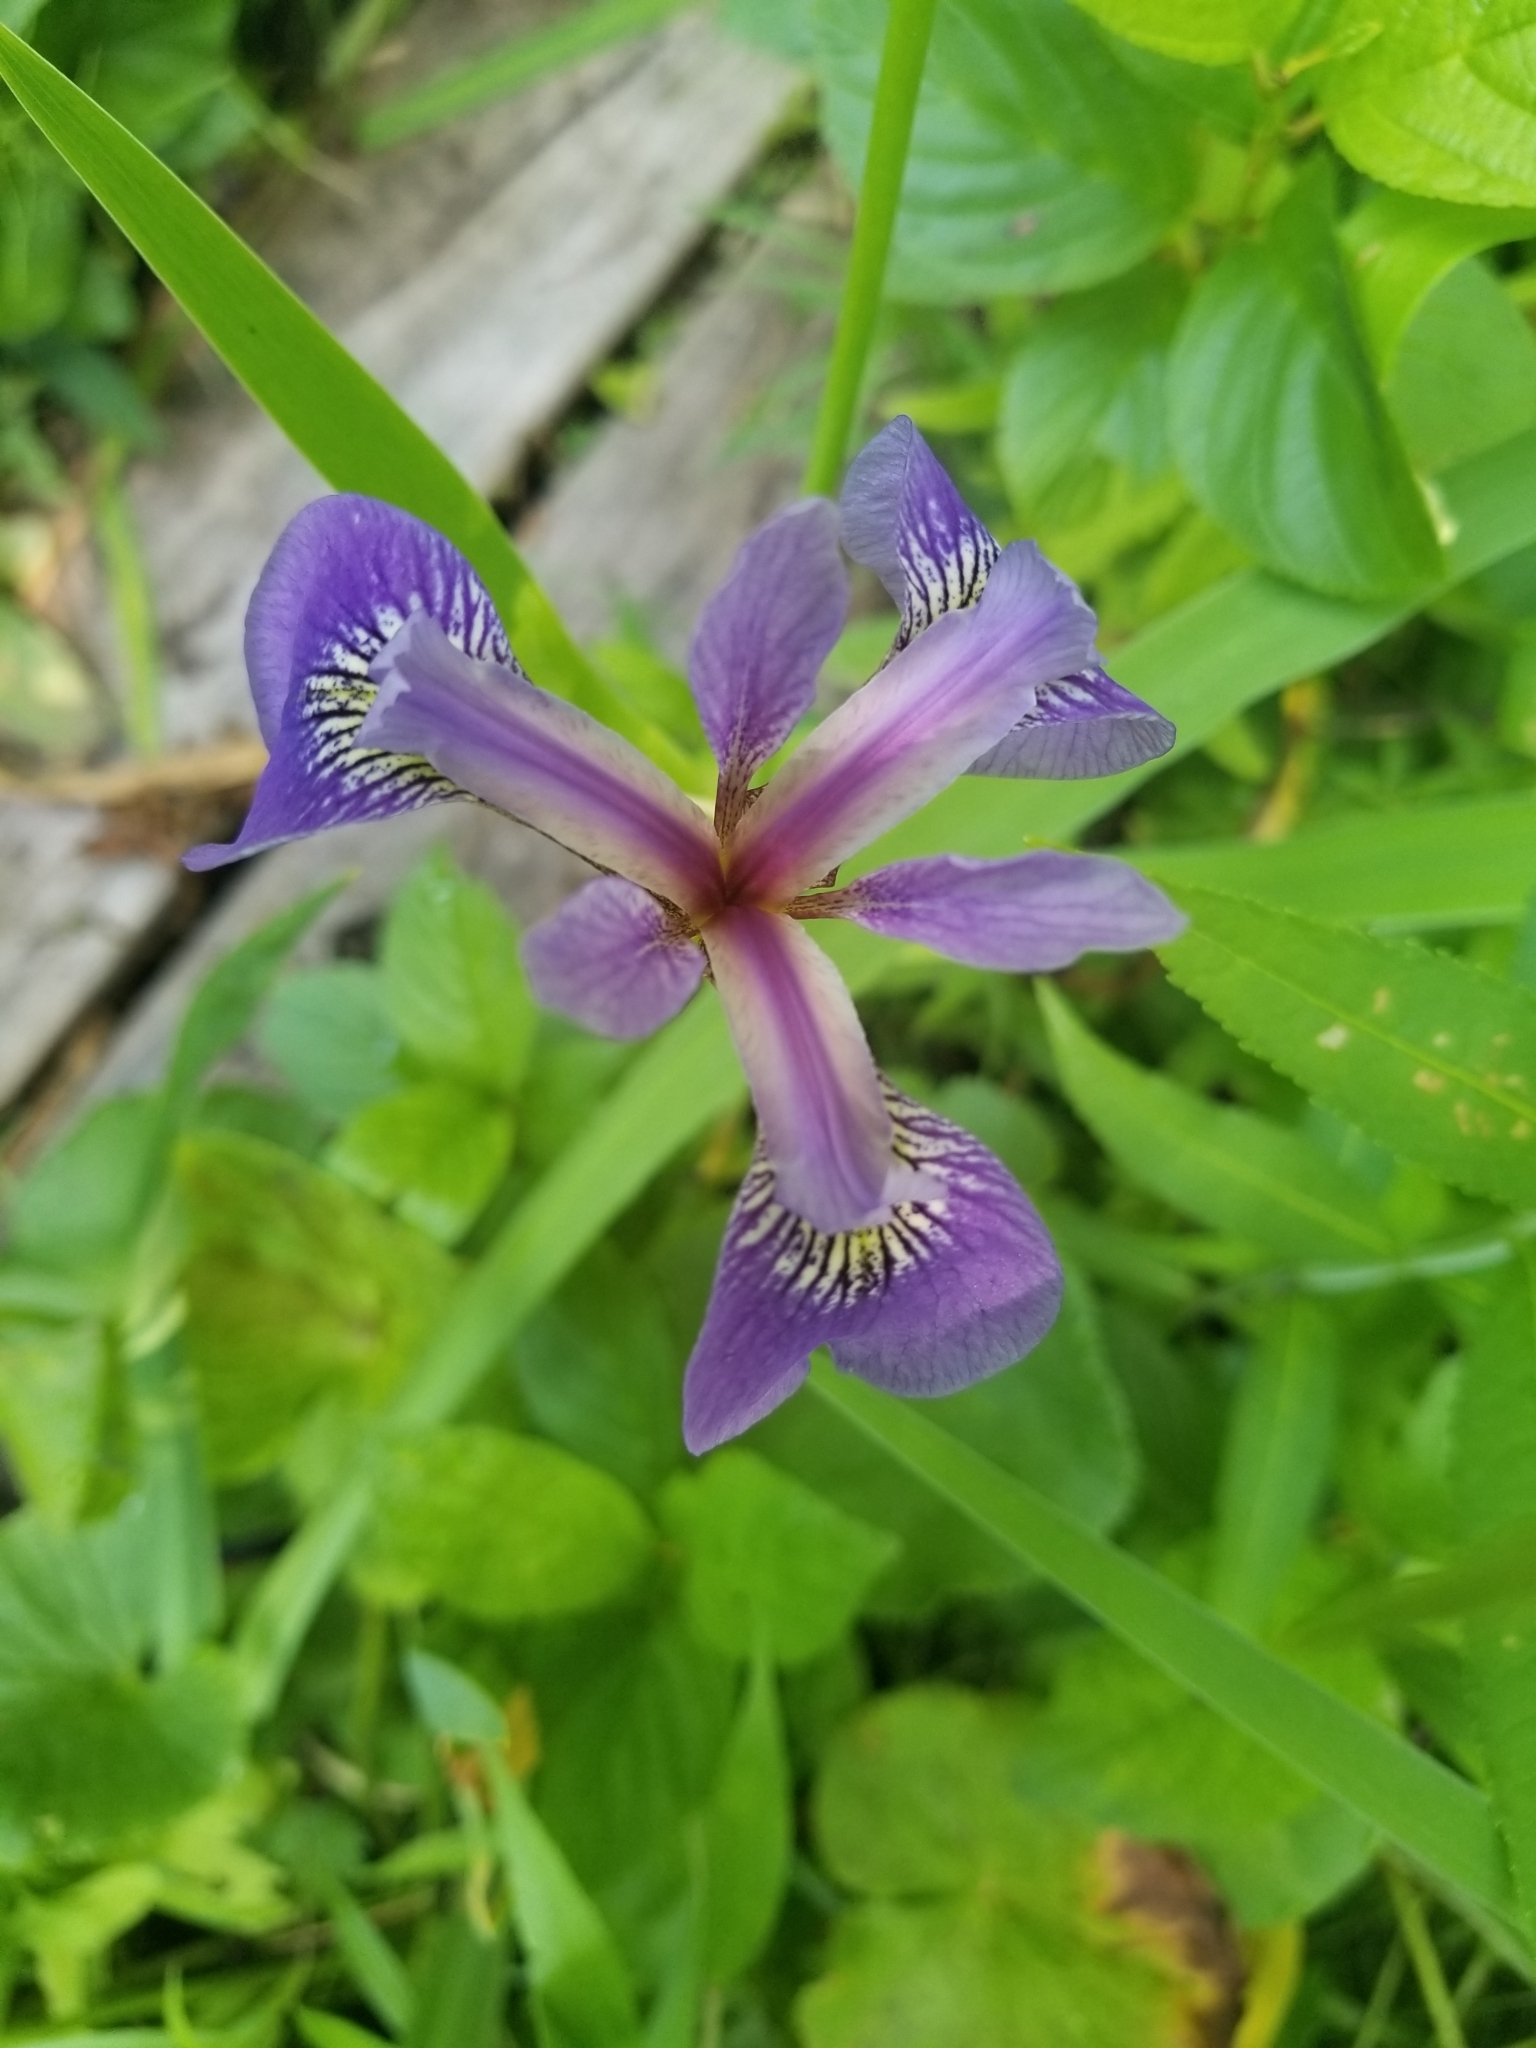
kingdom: Plantae
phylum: Tracheophyta
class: Liliopsida
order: Asparagales
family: Iridaceae
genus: Iris
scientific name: Iris versicolor
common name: Purple iris
